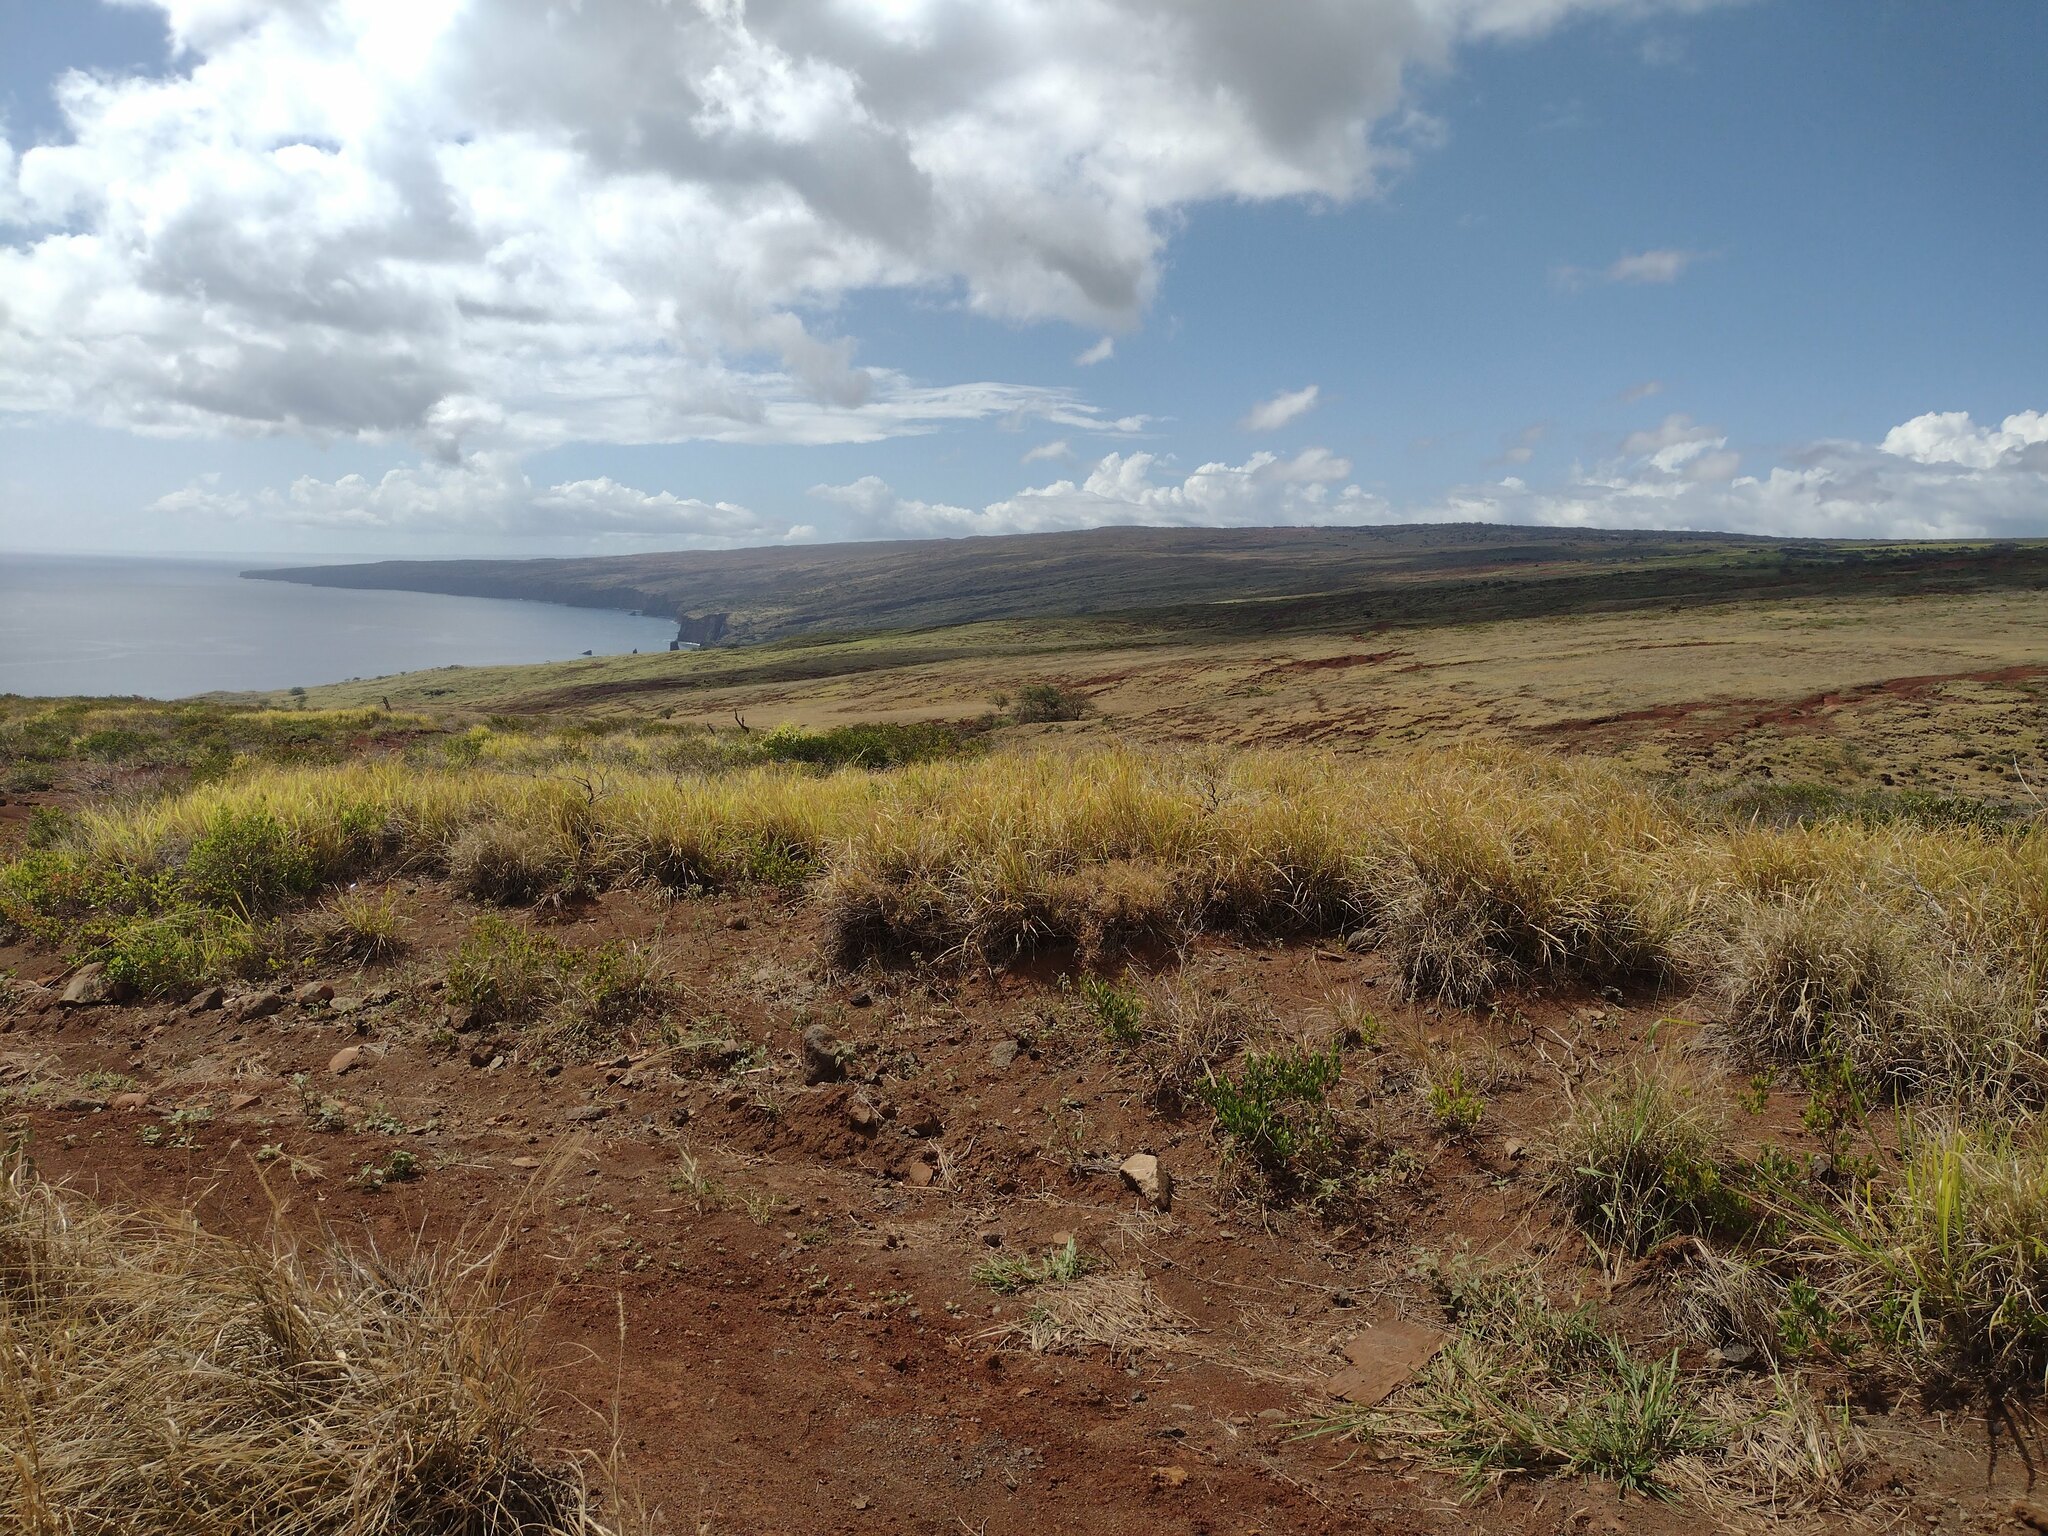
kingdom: Plantae
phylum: Tracheophyta
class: Liliopsida
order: Poales
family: Poaceae
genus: Megathyrsus
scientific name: Megathyrsus maximus
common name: Guineagrass
